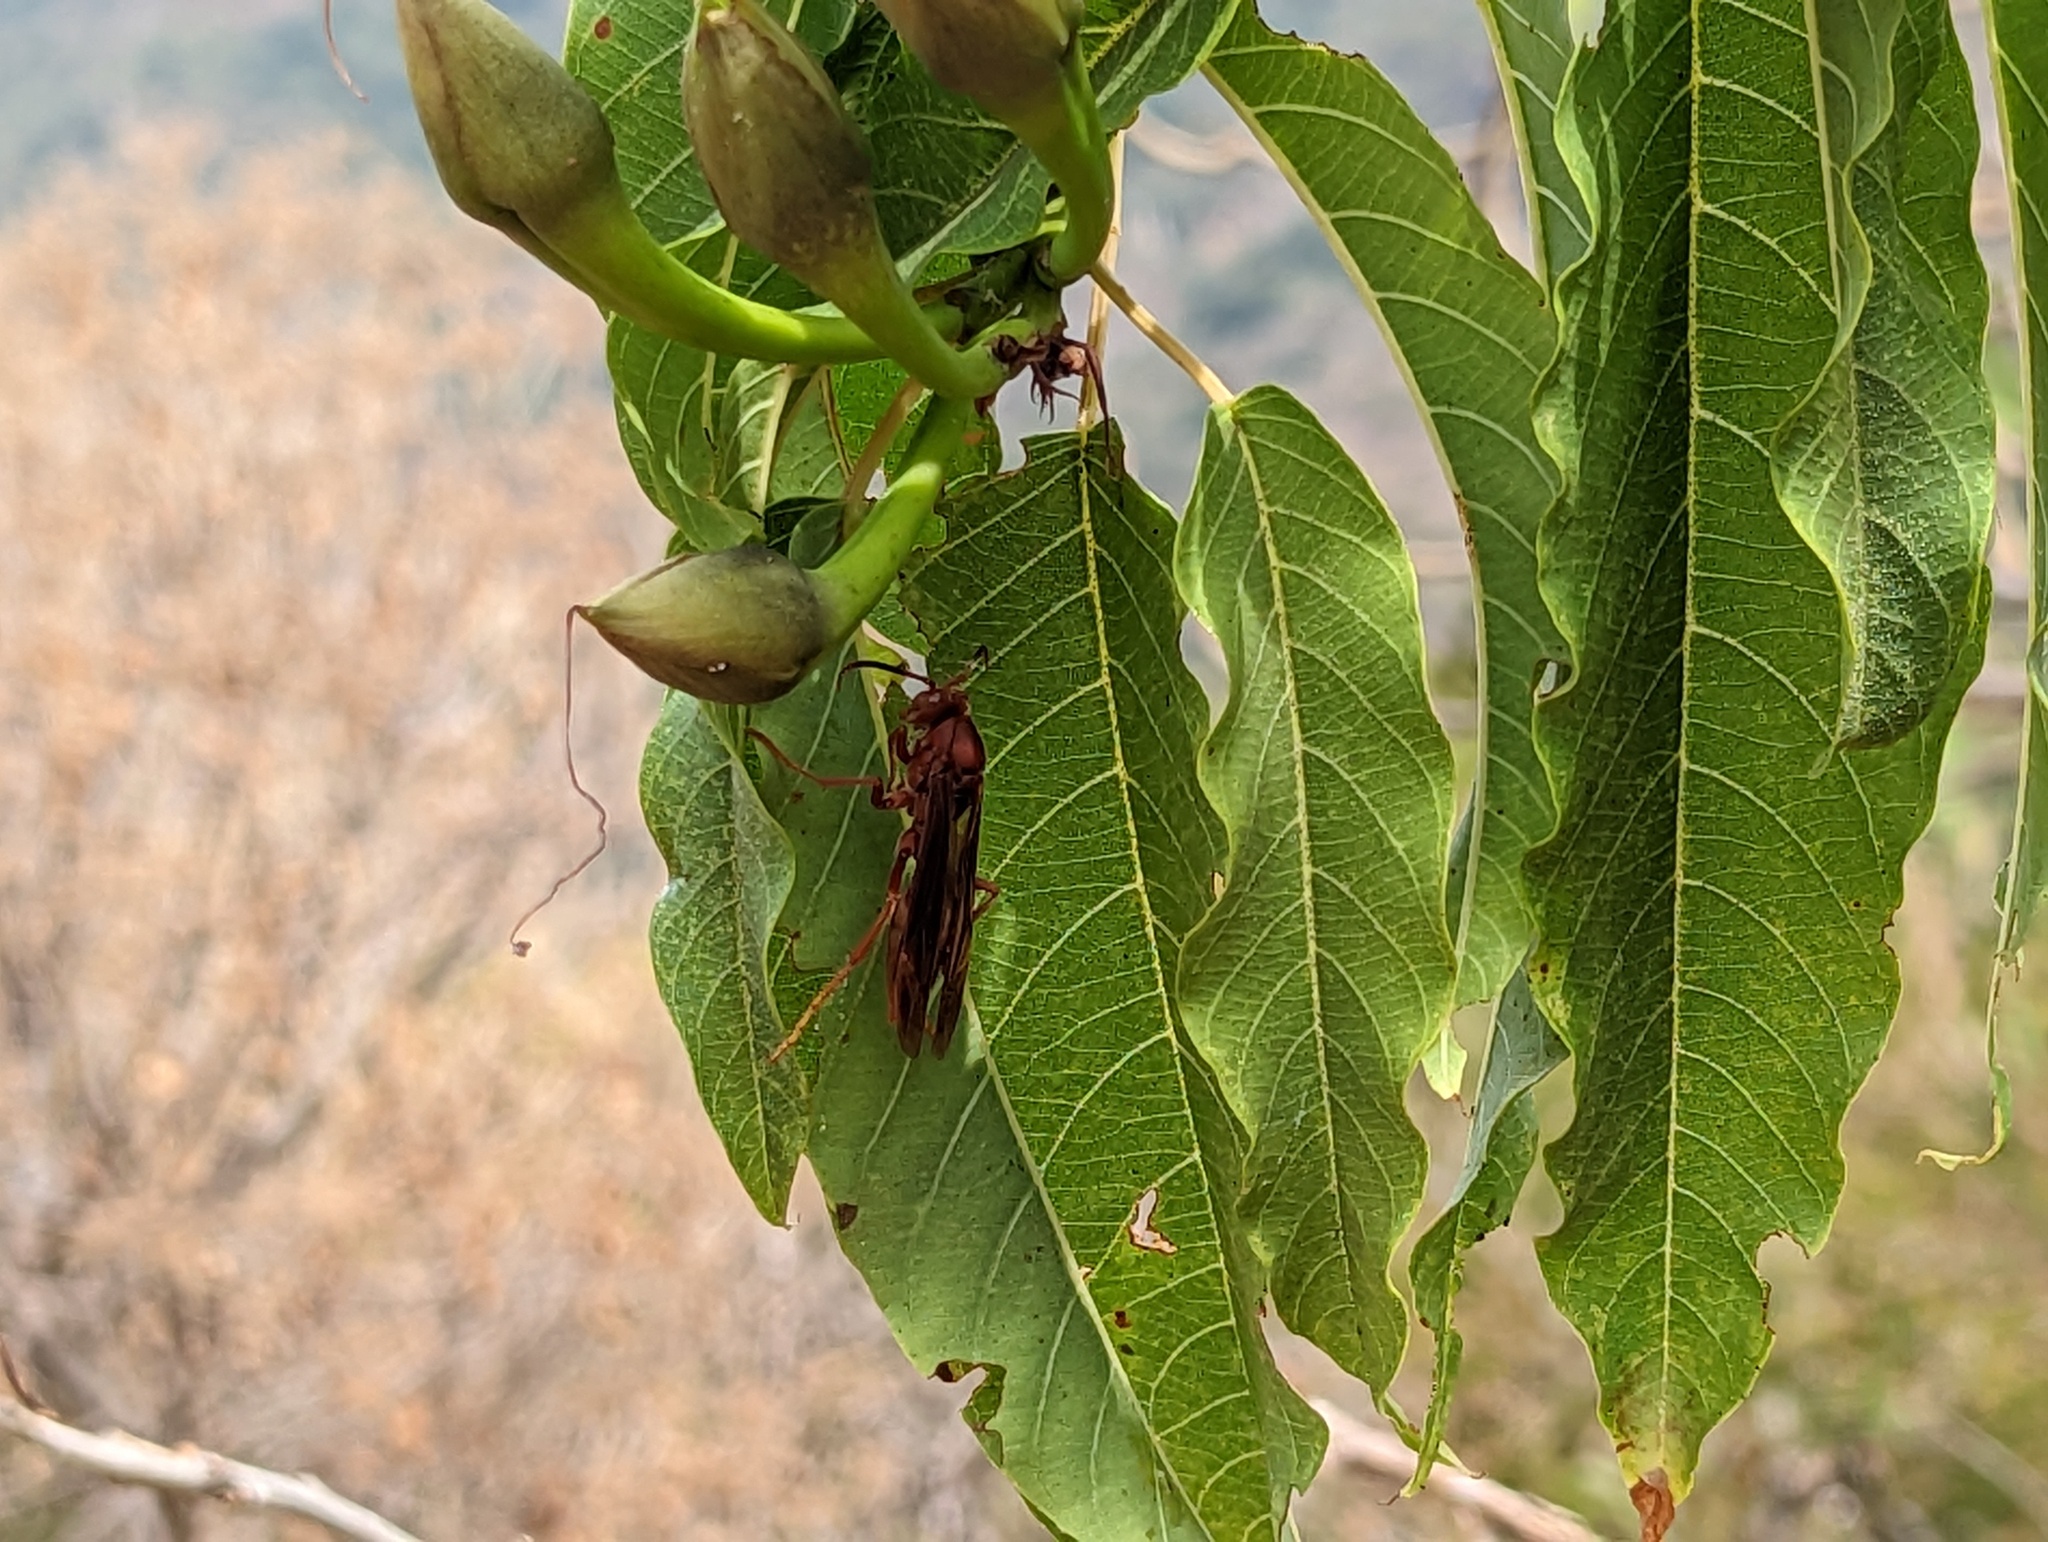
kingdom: Animalia
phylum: Arthropoda
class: Insecta
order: Hymenoptera
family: Eumenidae
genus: Polistes
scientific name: Polistes canadensis
